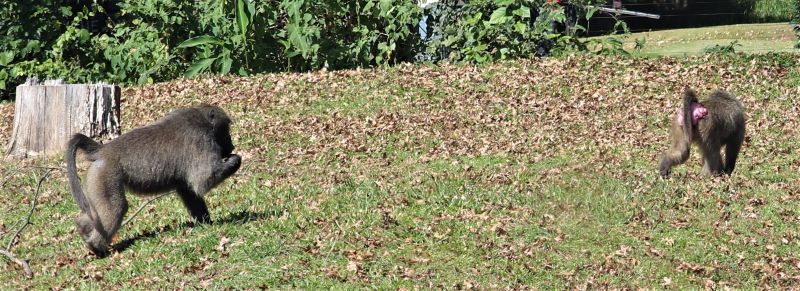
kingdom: Animalia
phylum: Chordata
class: Mammalia
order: Primates
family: Cercopithecidae
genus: Papio
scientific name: Papio ursinus
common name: Chacma baboon
